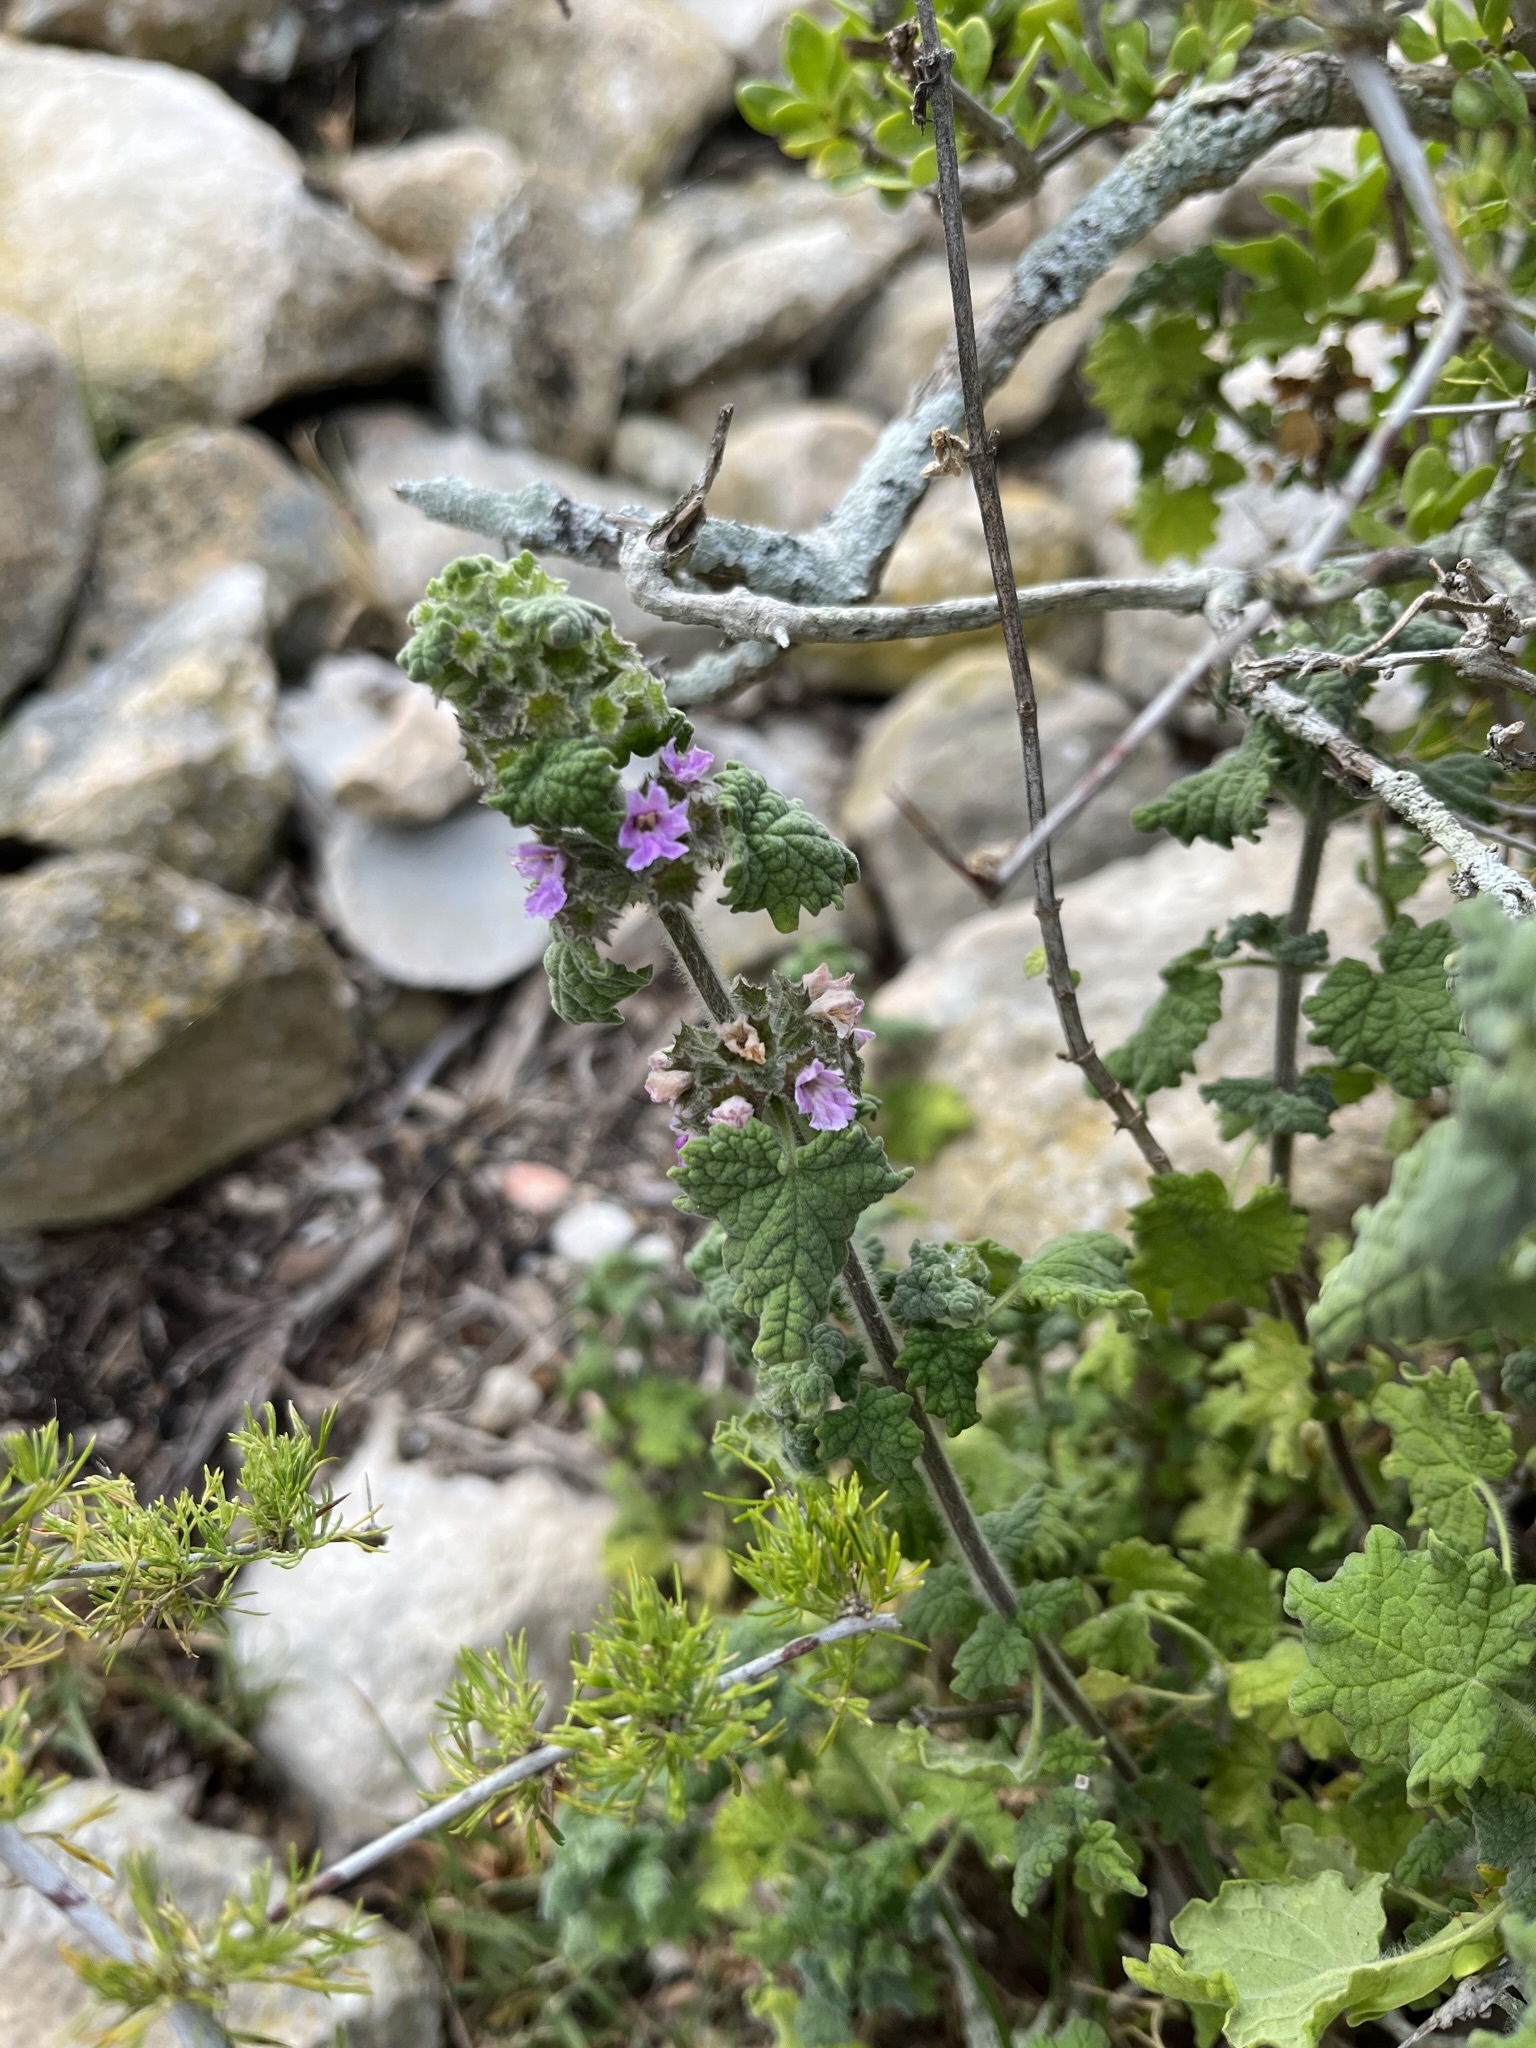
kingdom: Plantae
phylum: Tracheophyta
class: Magnoliopsida
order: Lamiales
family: Lamiaceae
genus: Pseudodictamnus
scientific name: Pseudodictamnus africanus
